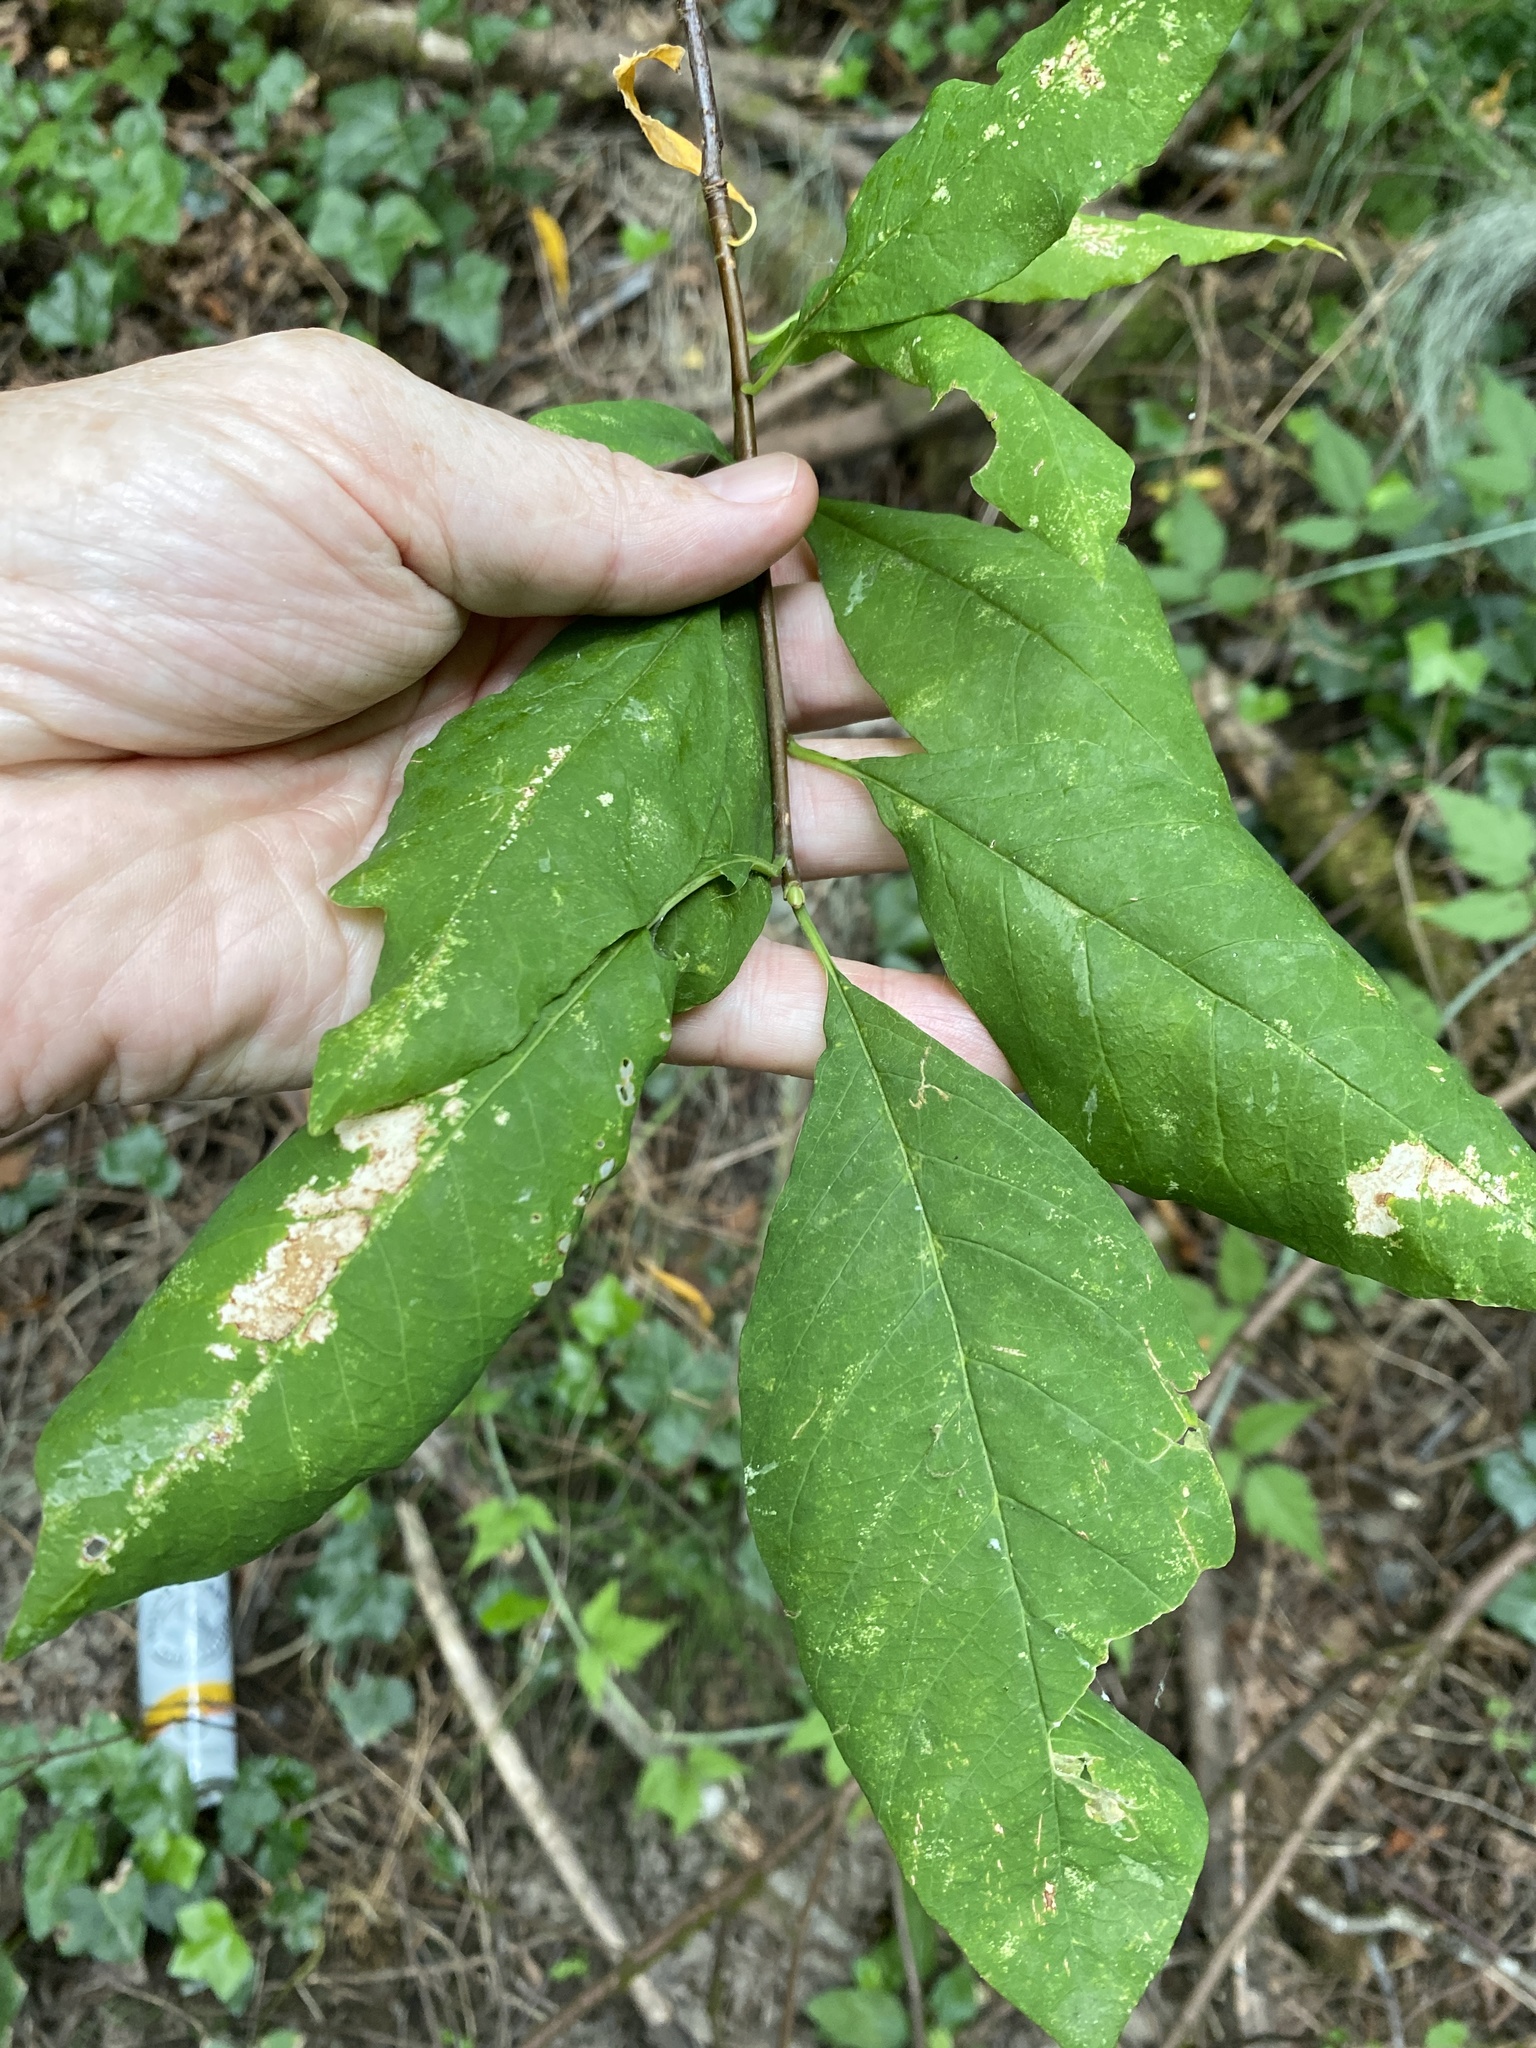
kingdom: Plantae
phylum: Tracheophyta
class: Magnoliopsida
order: Rosales
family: Rosaceae
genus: Oemleria
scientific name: Oemleria cerasiformis
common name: Osoberry
